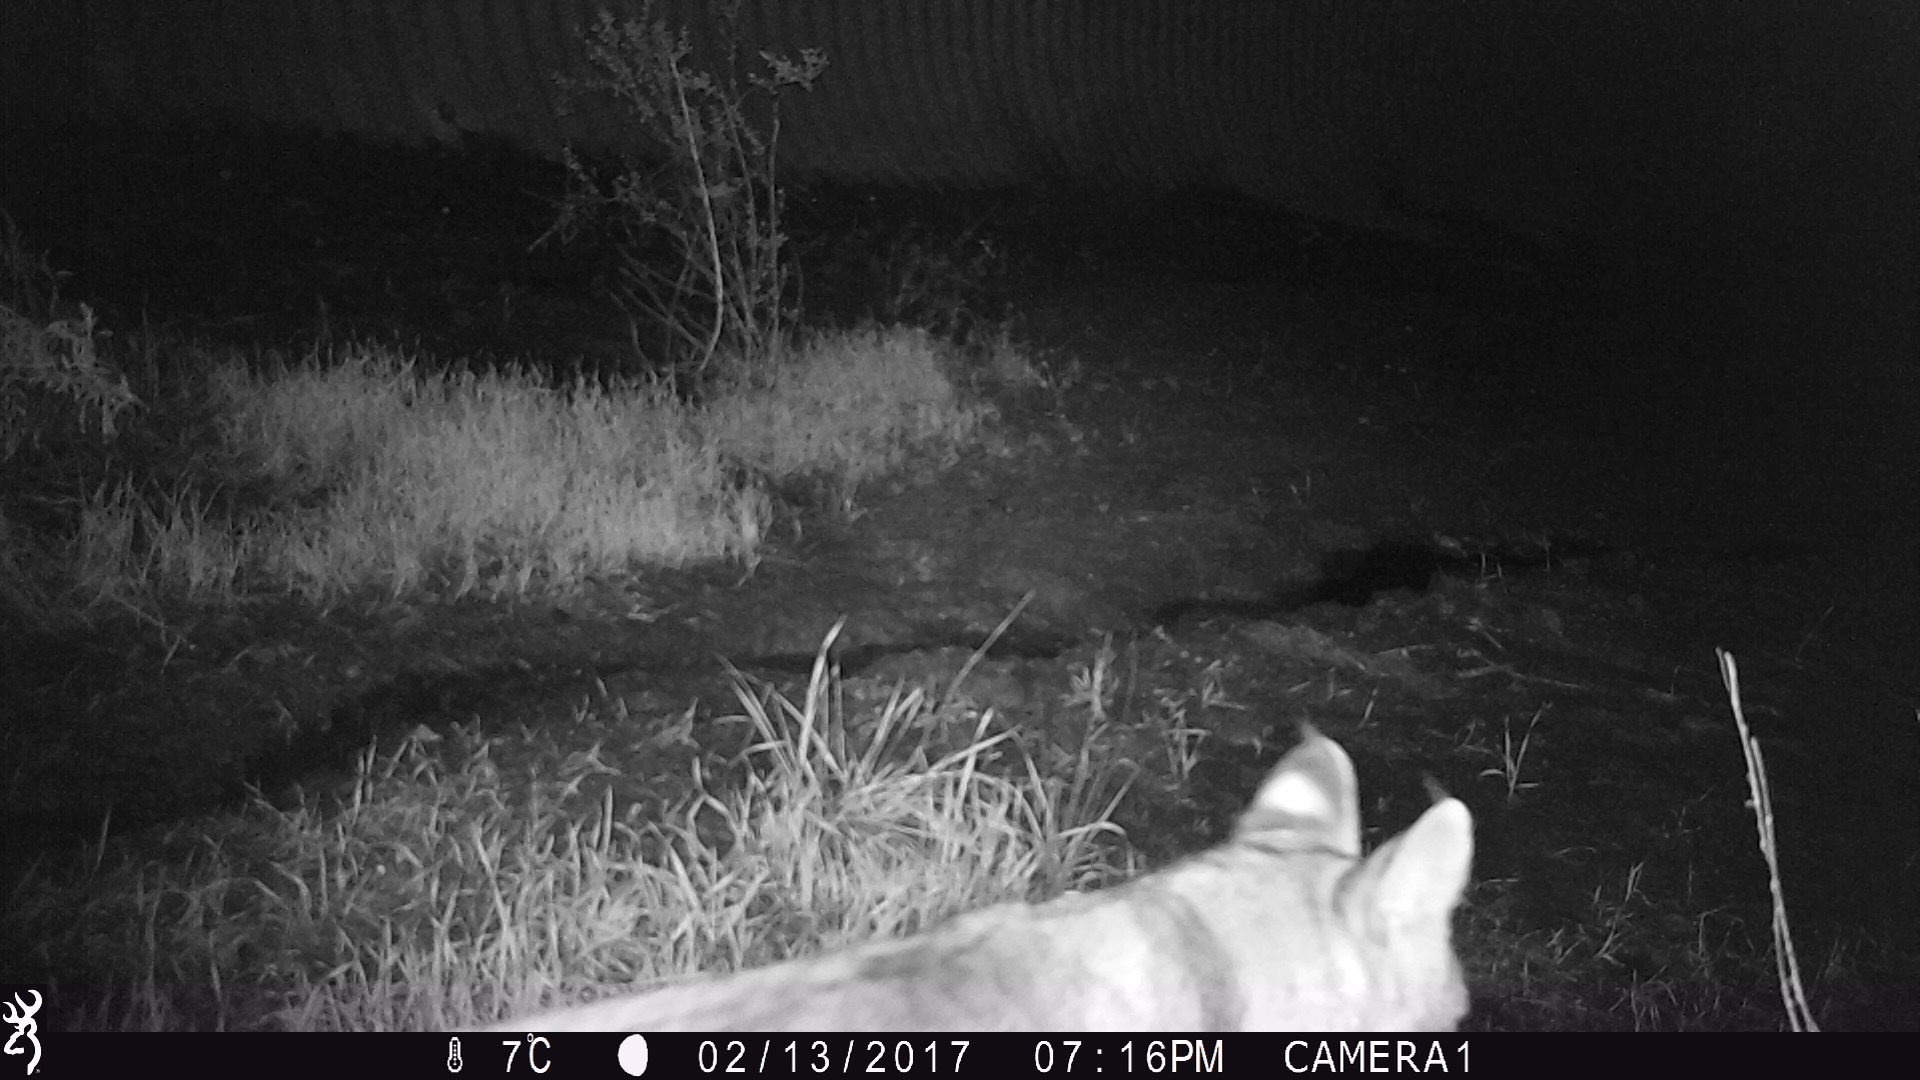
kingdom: Animalia
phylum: Chordata
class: Mammalia
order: Carnivora
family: Felidae
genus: Lynx
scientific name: Lynx rufus
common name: Bobcat
